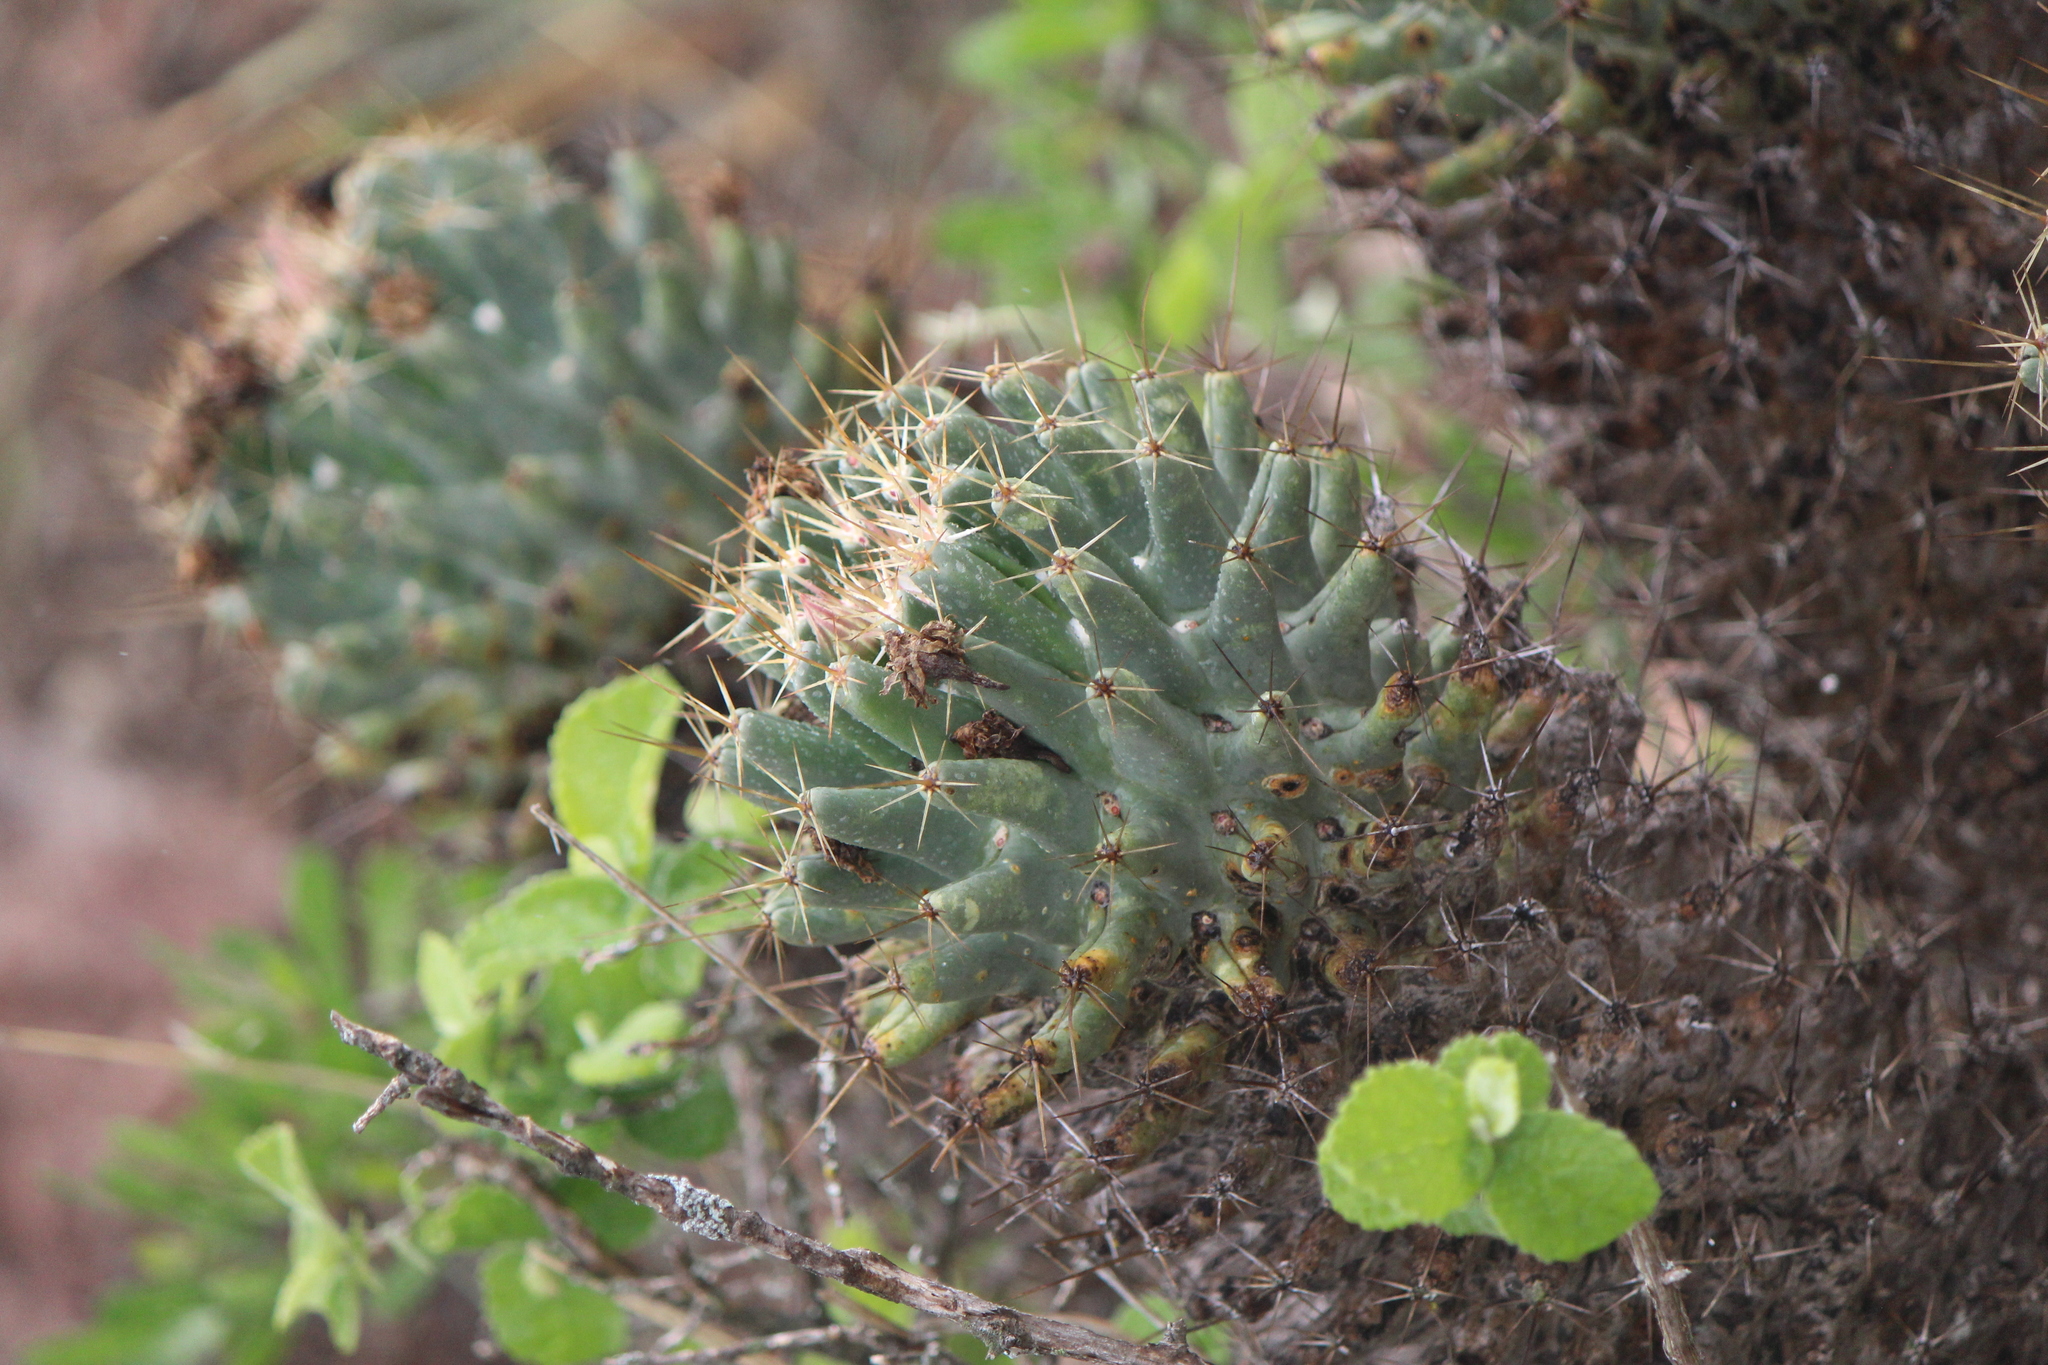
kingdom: Plantae
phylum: Tracheophyta
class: Magnoliopsida
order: Caryophyllales
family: Cactaceae
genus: Coryphantha
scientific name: Coryphantha octacantha
